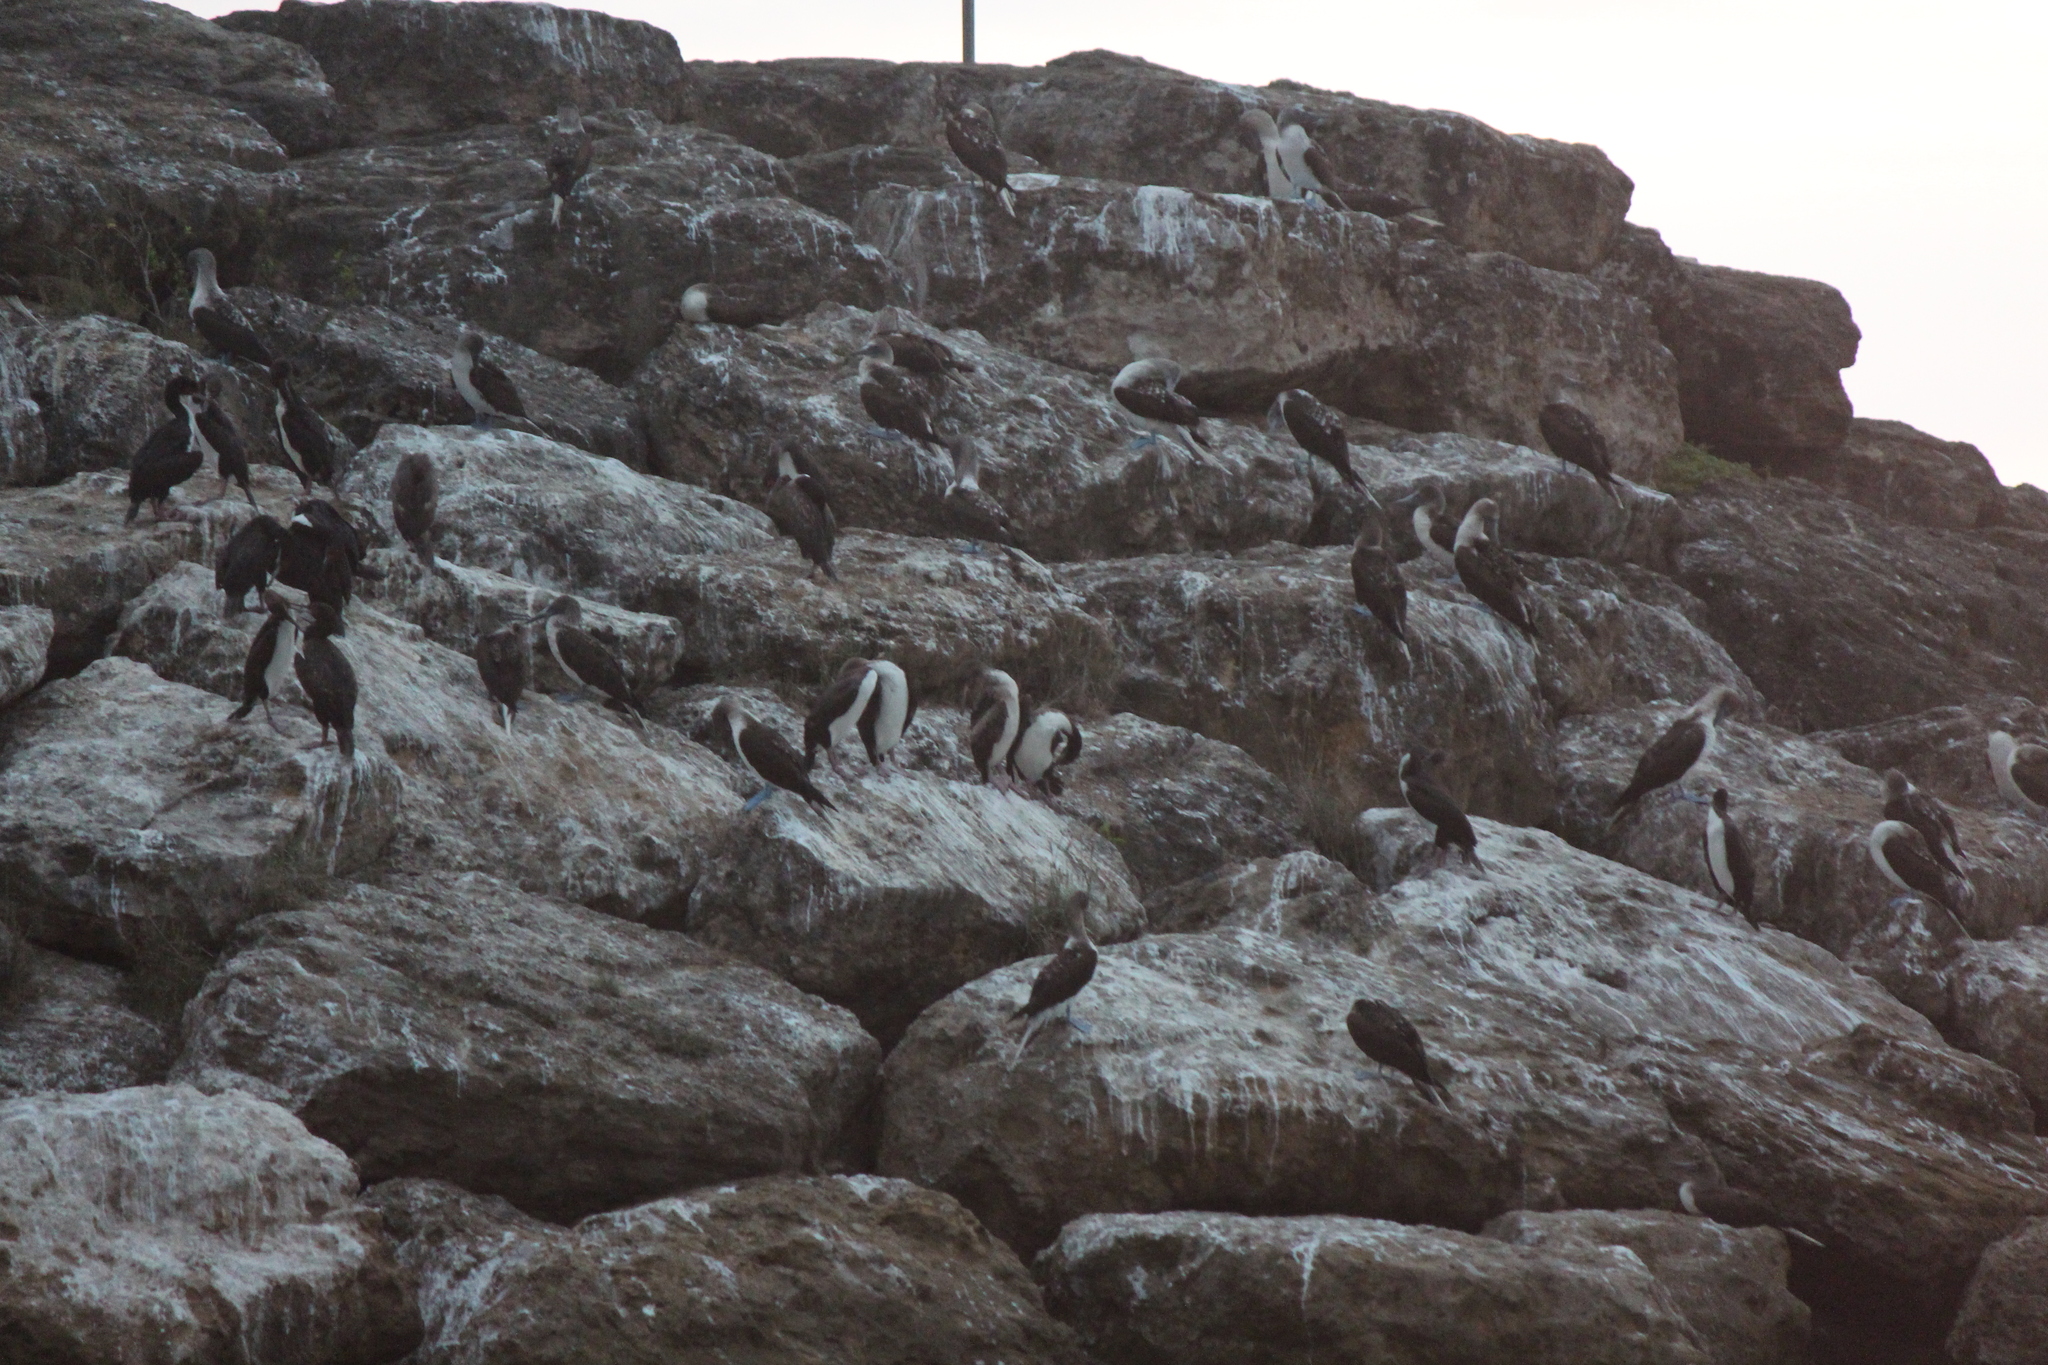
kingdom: Animalia
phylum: Chordata
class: Aves
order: Suliformes
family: Phalacrocoracidae
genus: Leucocarbo
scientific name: Leucocarbo bougainvillii
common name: Guanay cormorant
